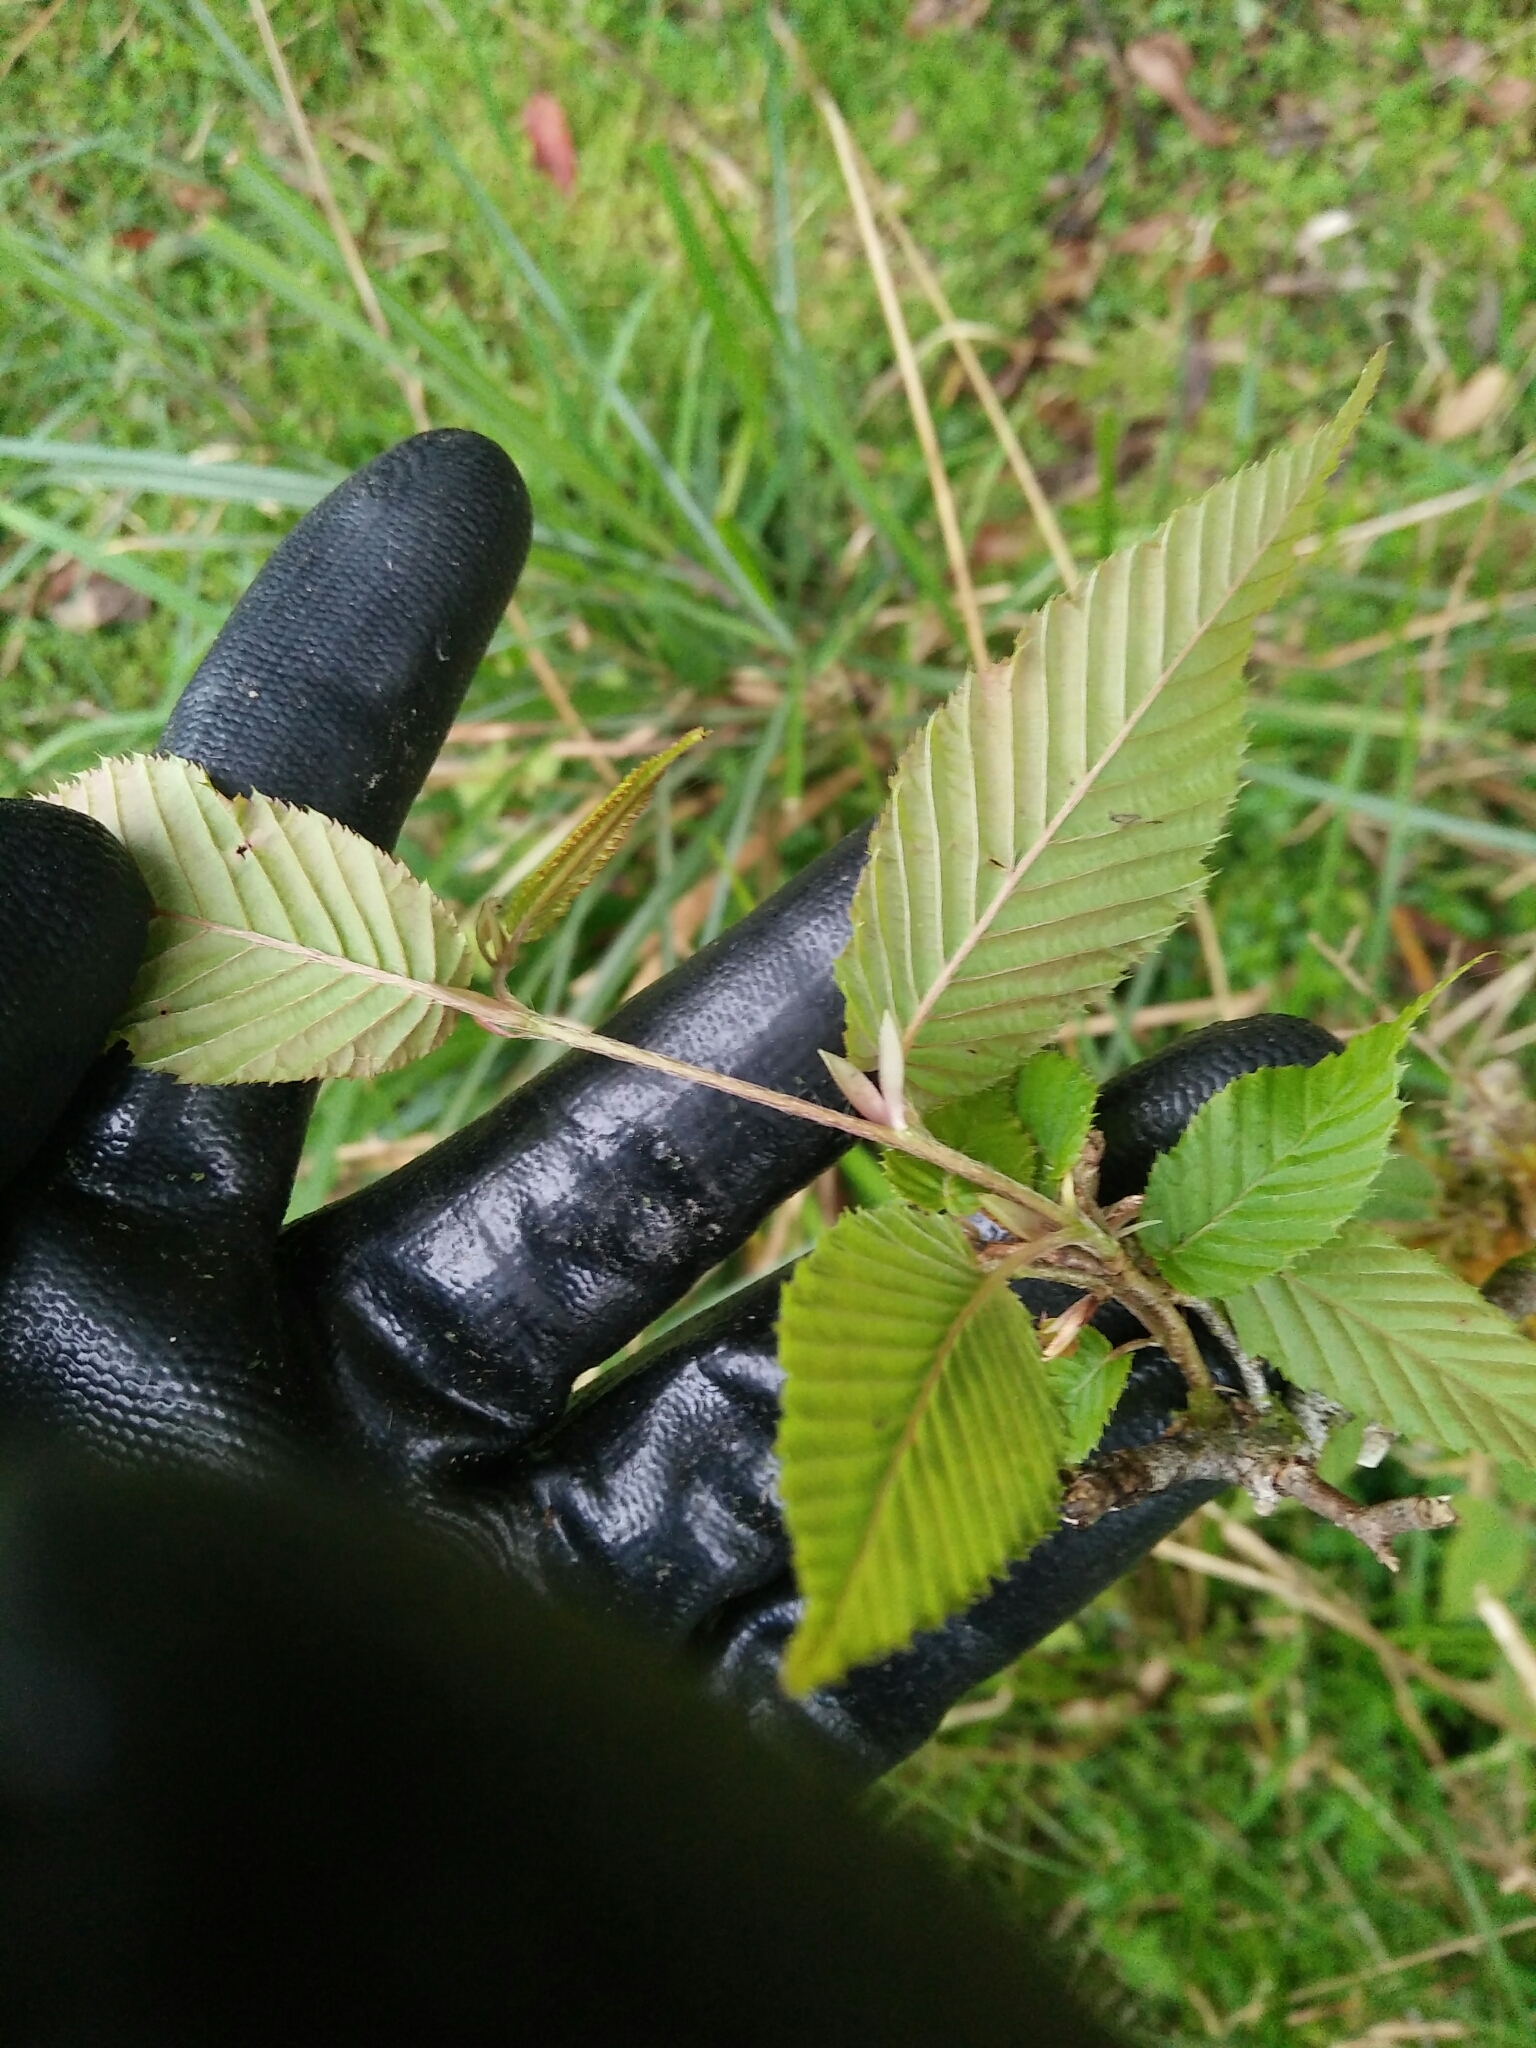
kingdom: Plantae
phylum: Tracheophyta
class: Magnoliopsida
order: Fagales
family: Betulaceae
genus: Carpinus
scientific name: Carpinus rankanensis
